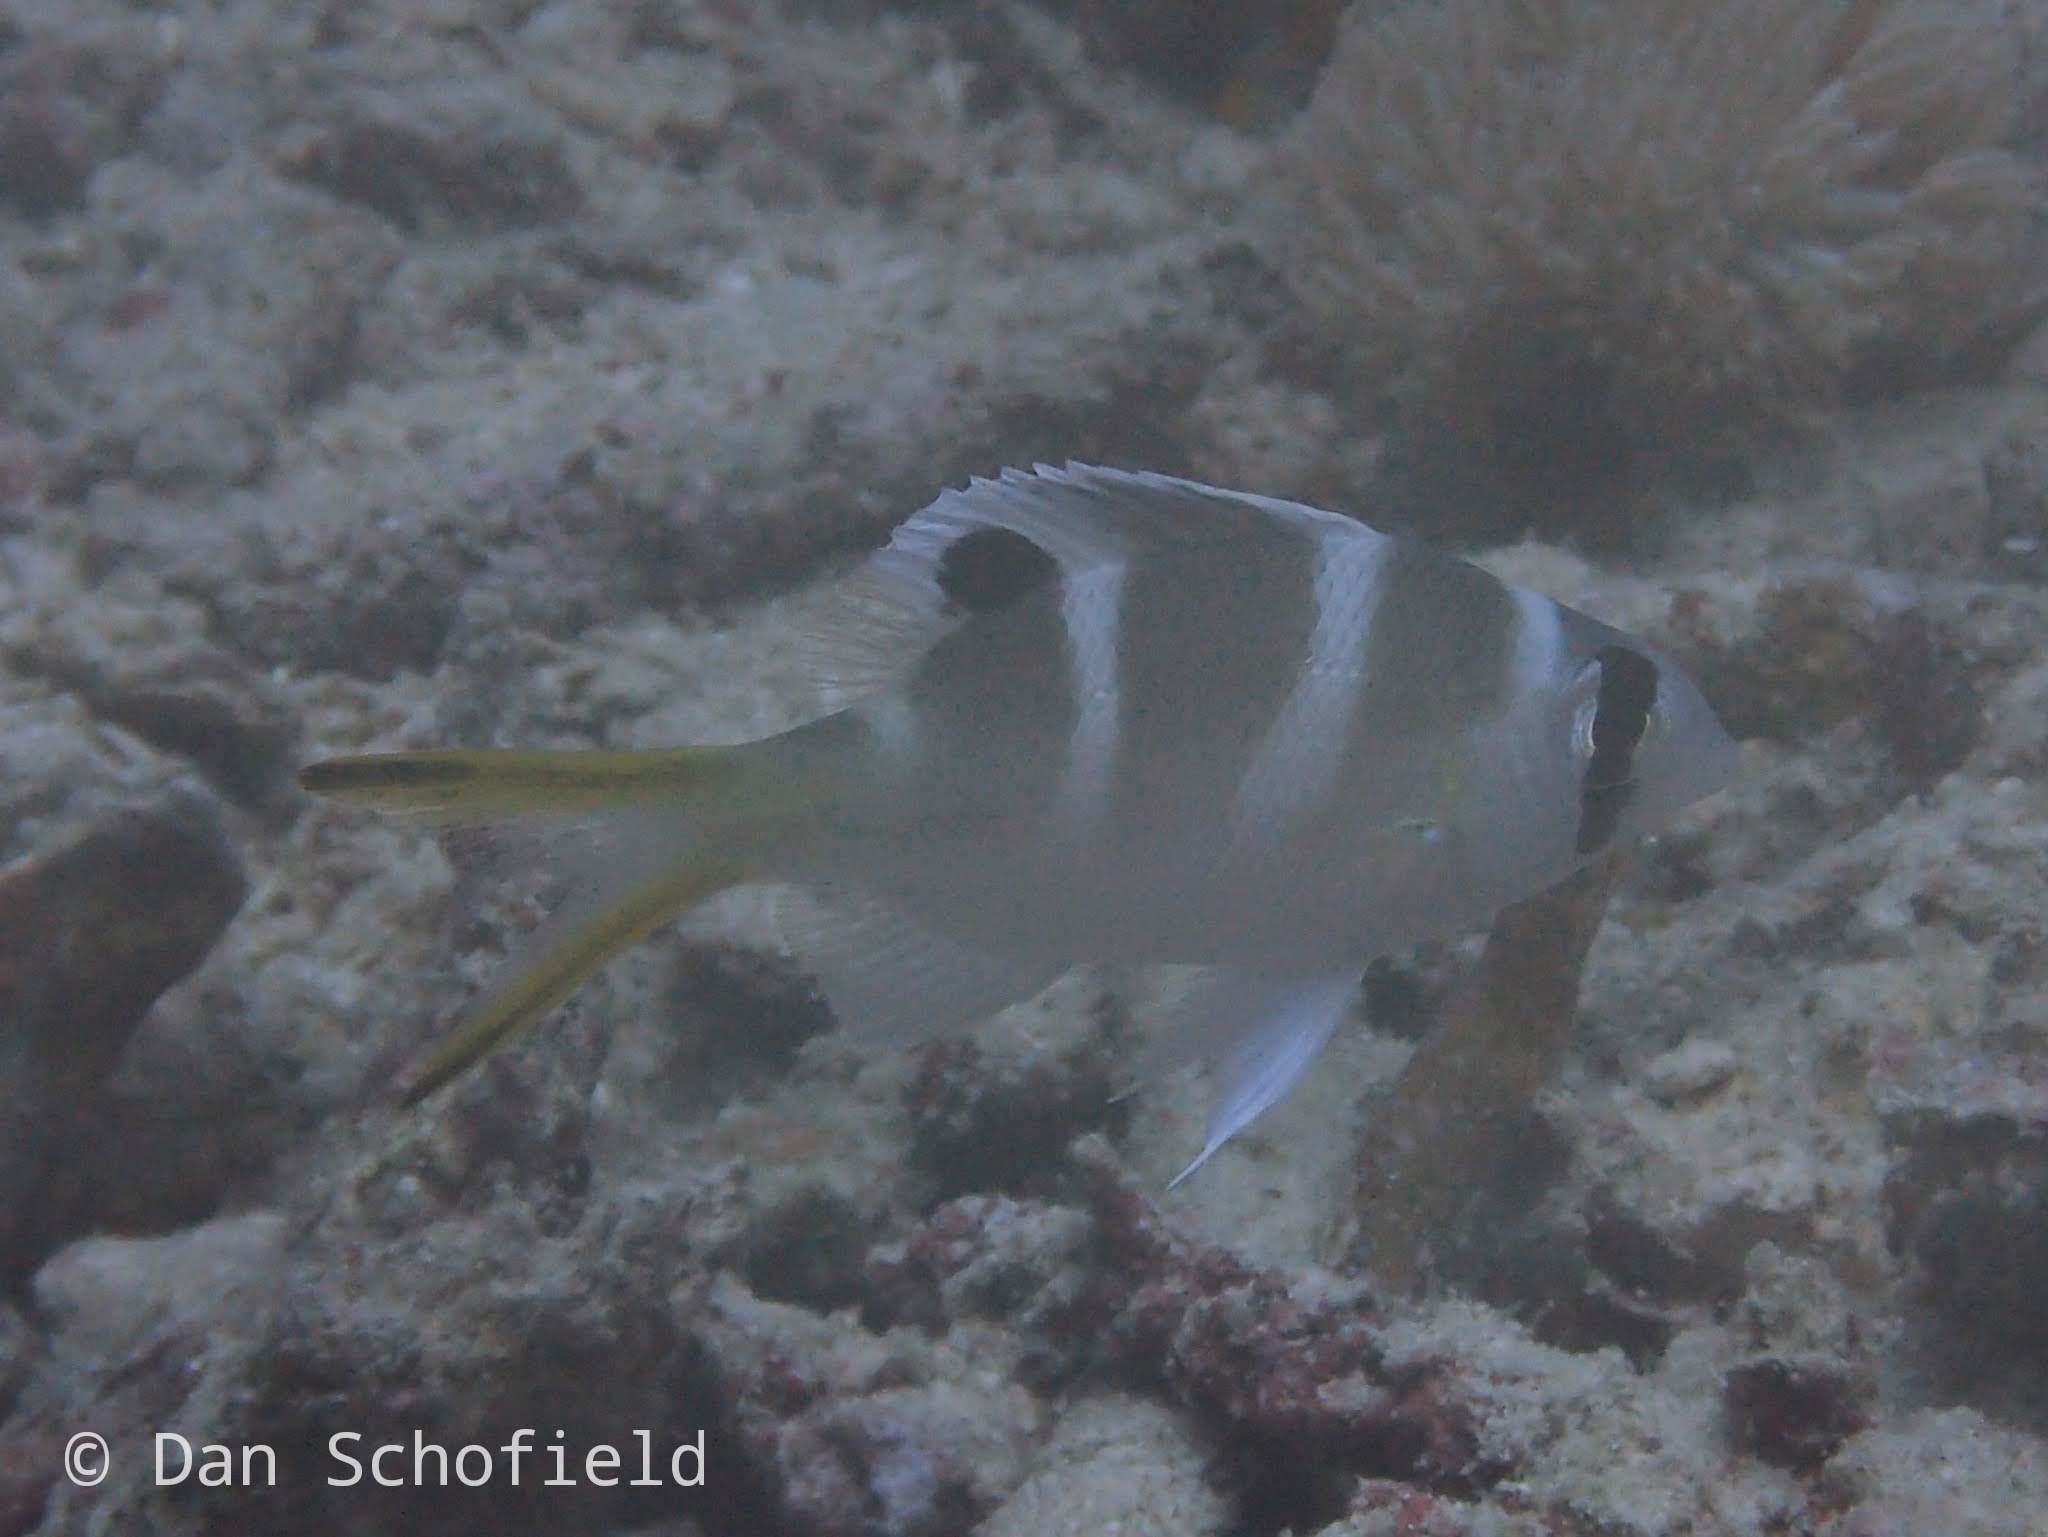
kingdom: Animalia
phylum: Chordata
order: Perciformes
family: Lethrinidae
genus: Monotaxis
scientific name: Monotaxis grandoculis
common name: Bigeye emperor
